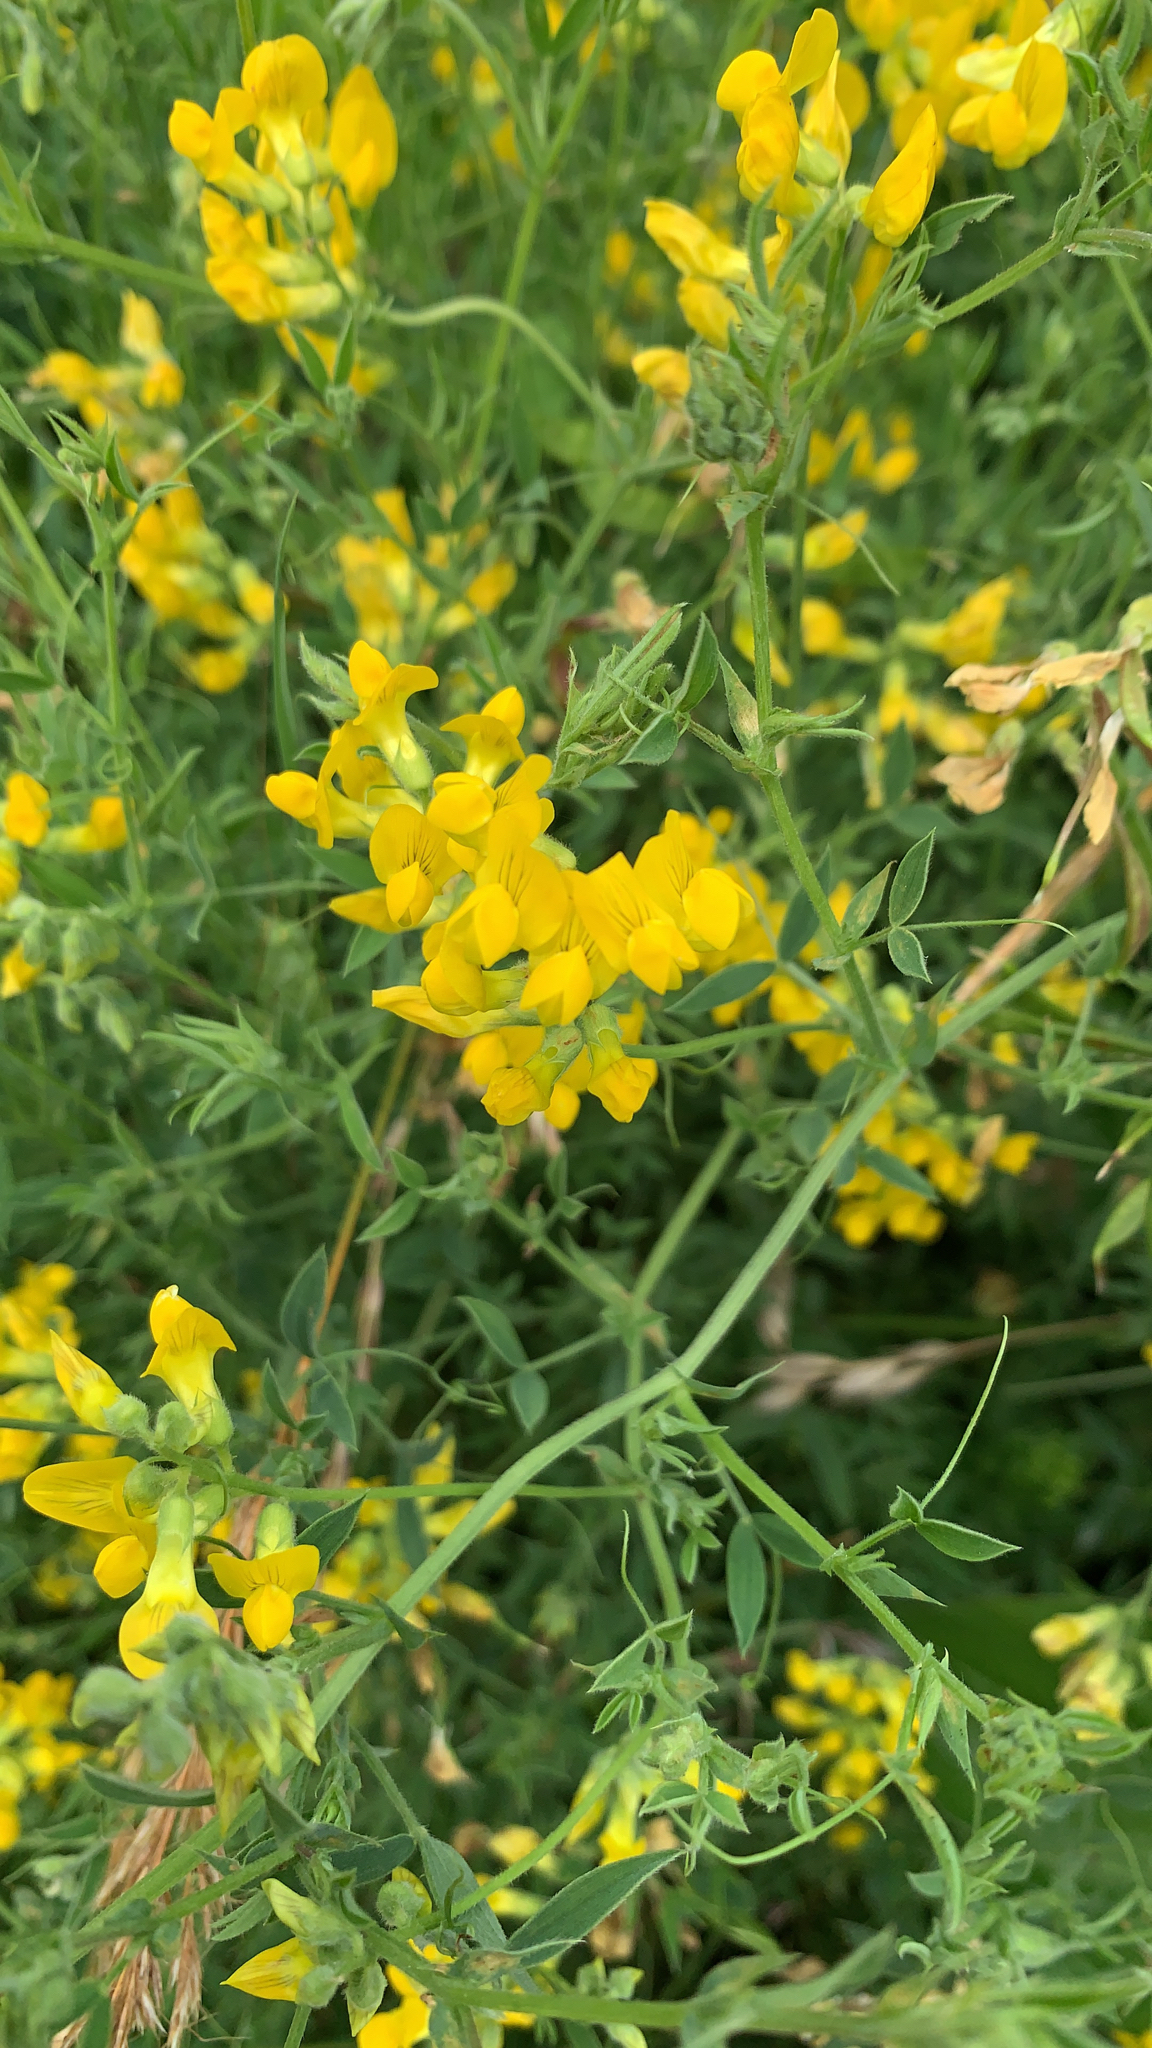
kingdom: Plantae
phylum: Tracheophyta
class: Magnoliopsida
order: Fabales
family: Fabaceae
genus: Lathyrus
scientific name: Lathyrus pratensis
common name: Meadow vetchling
